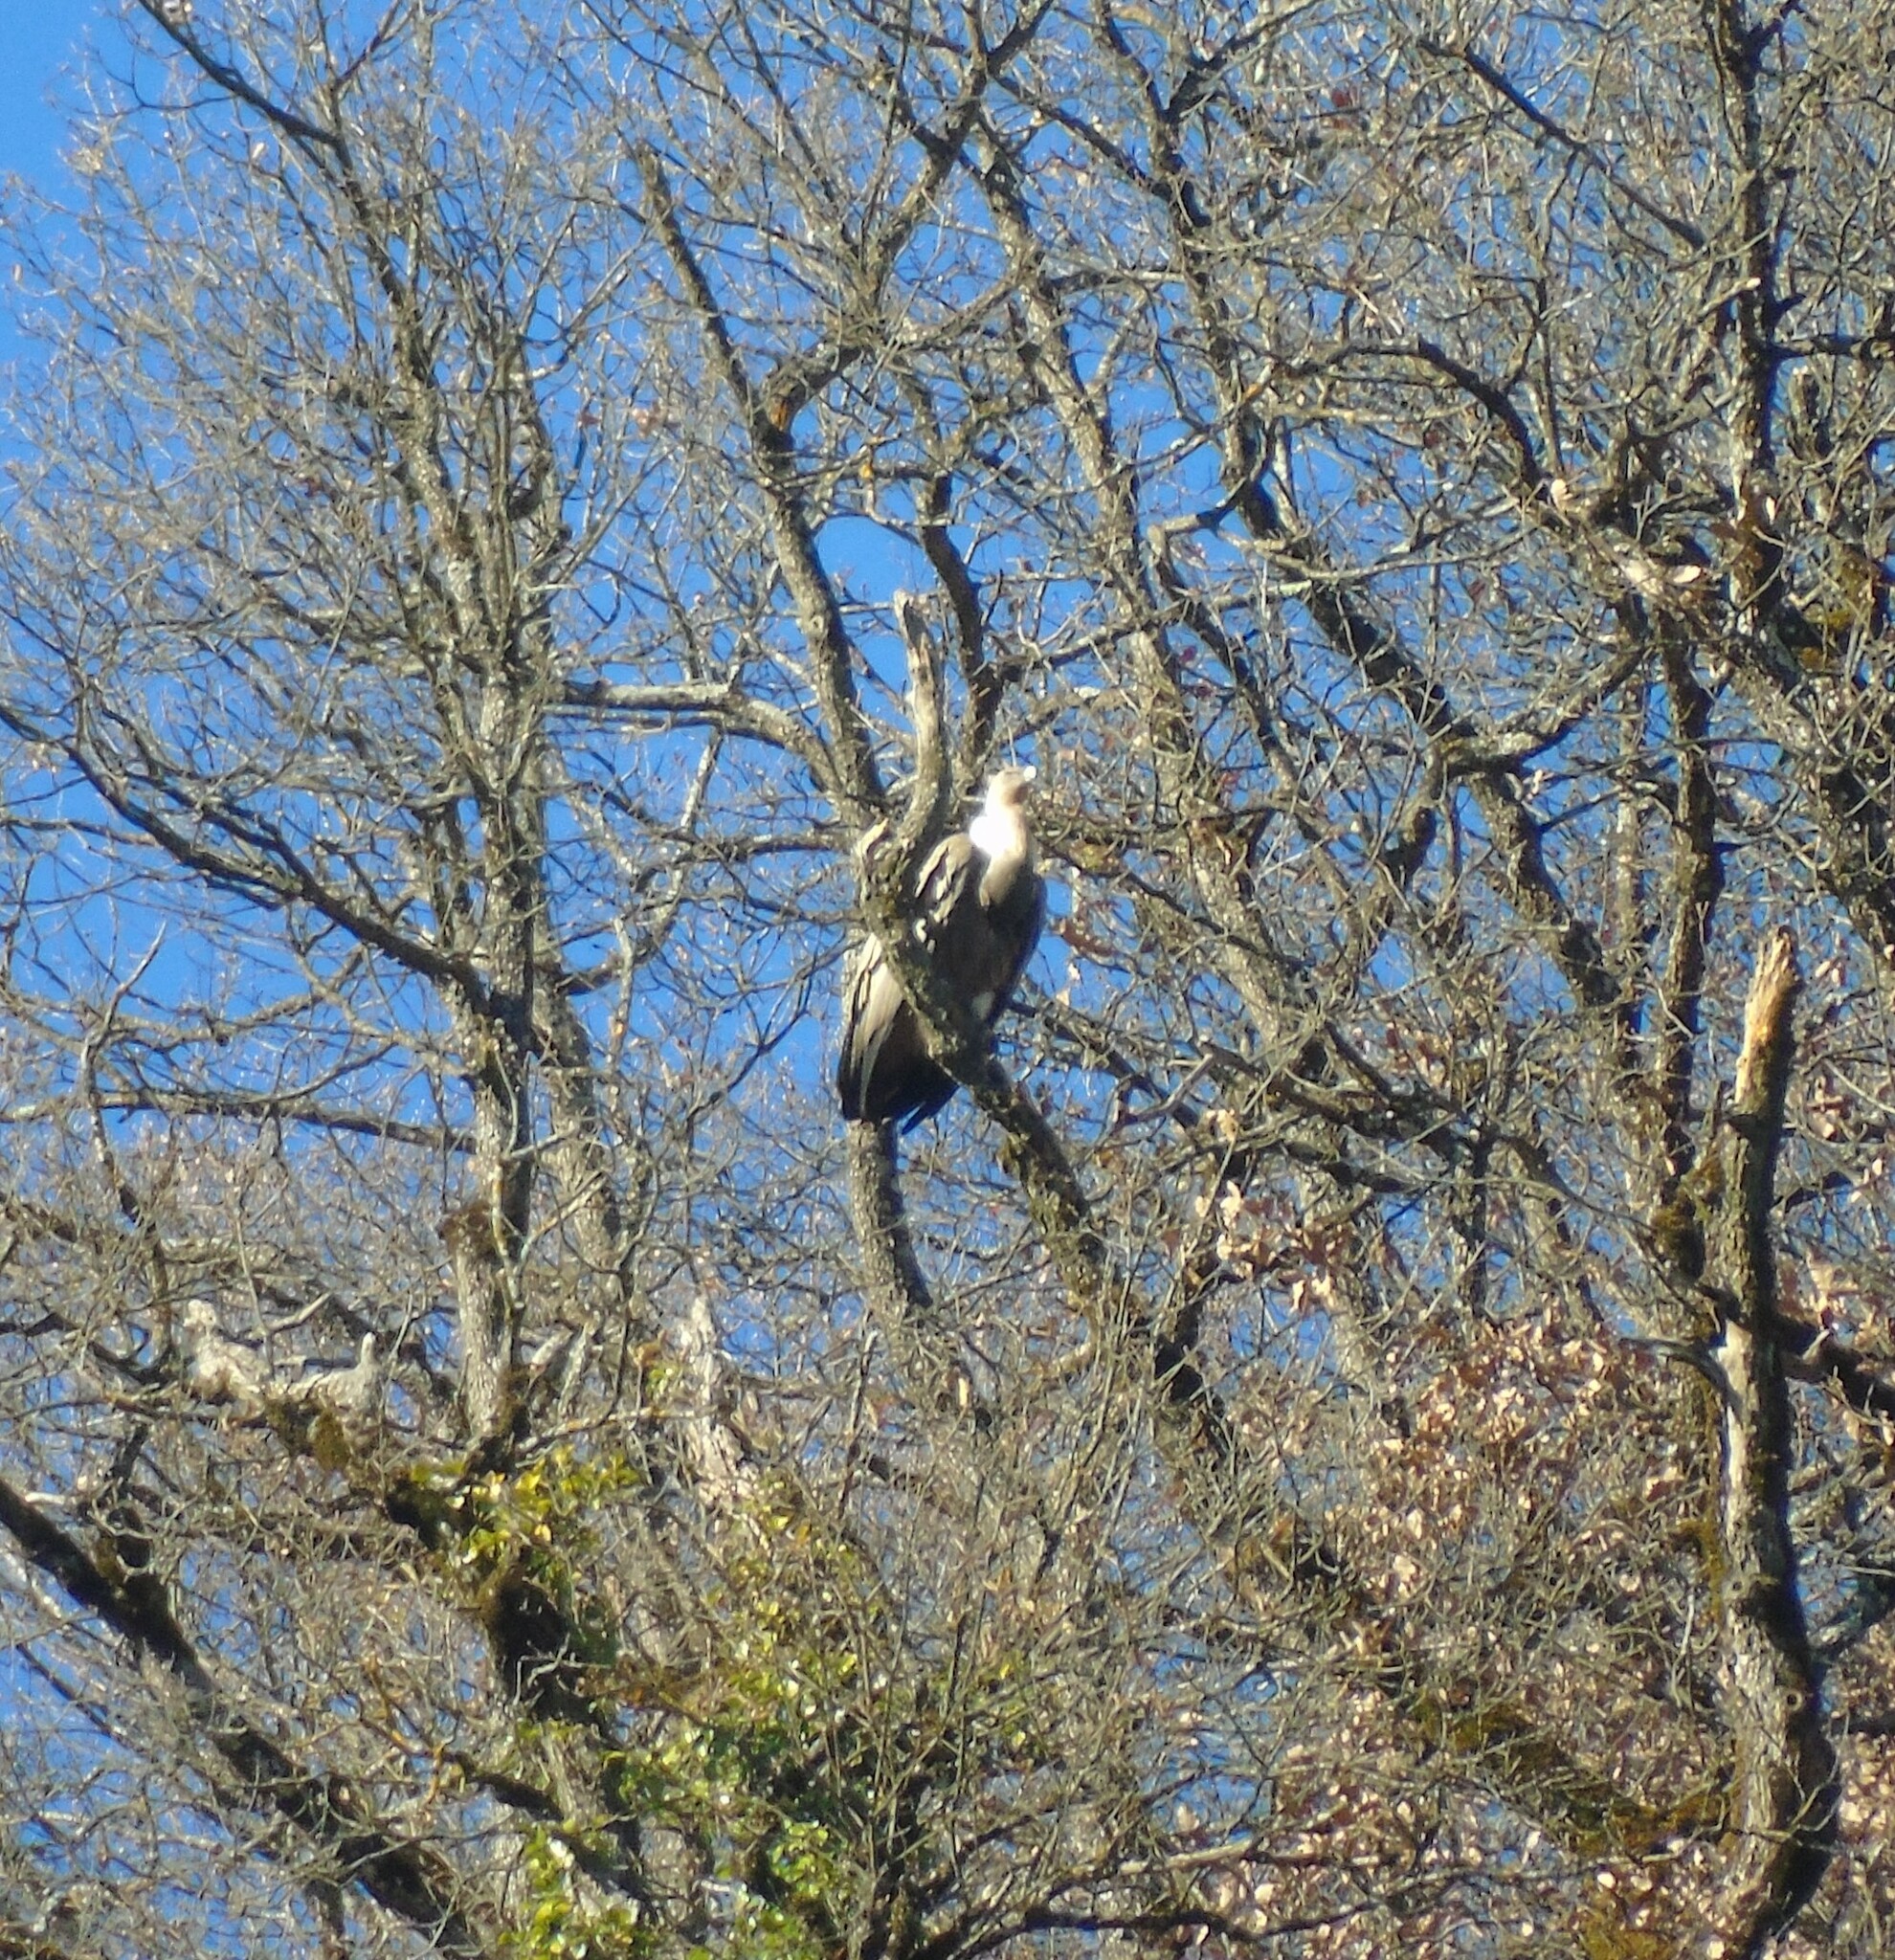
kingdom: Animalia
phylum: Chordata
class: Aves
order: Accipitriformes
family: Accipitridae
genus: Gyps
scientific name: Gyps fulvus
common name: Griffon vulture
